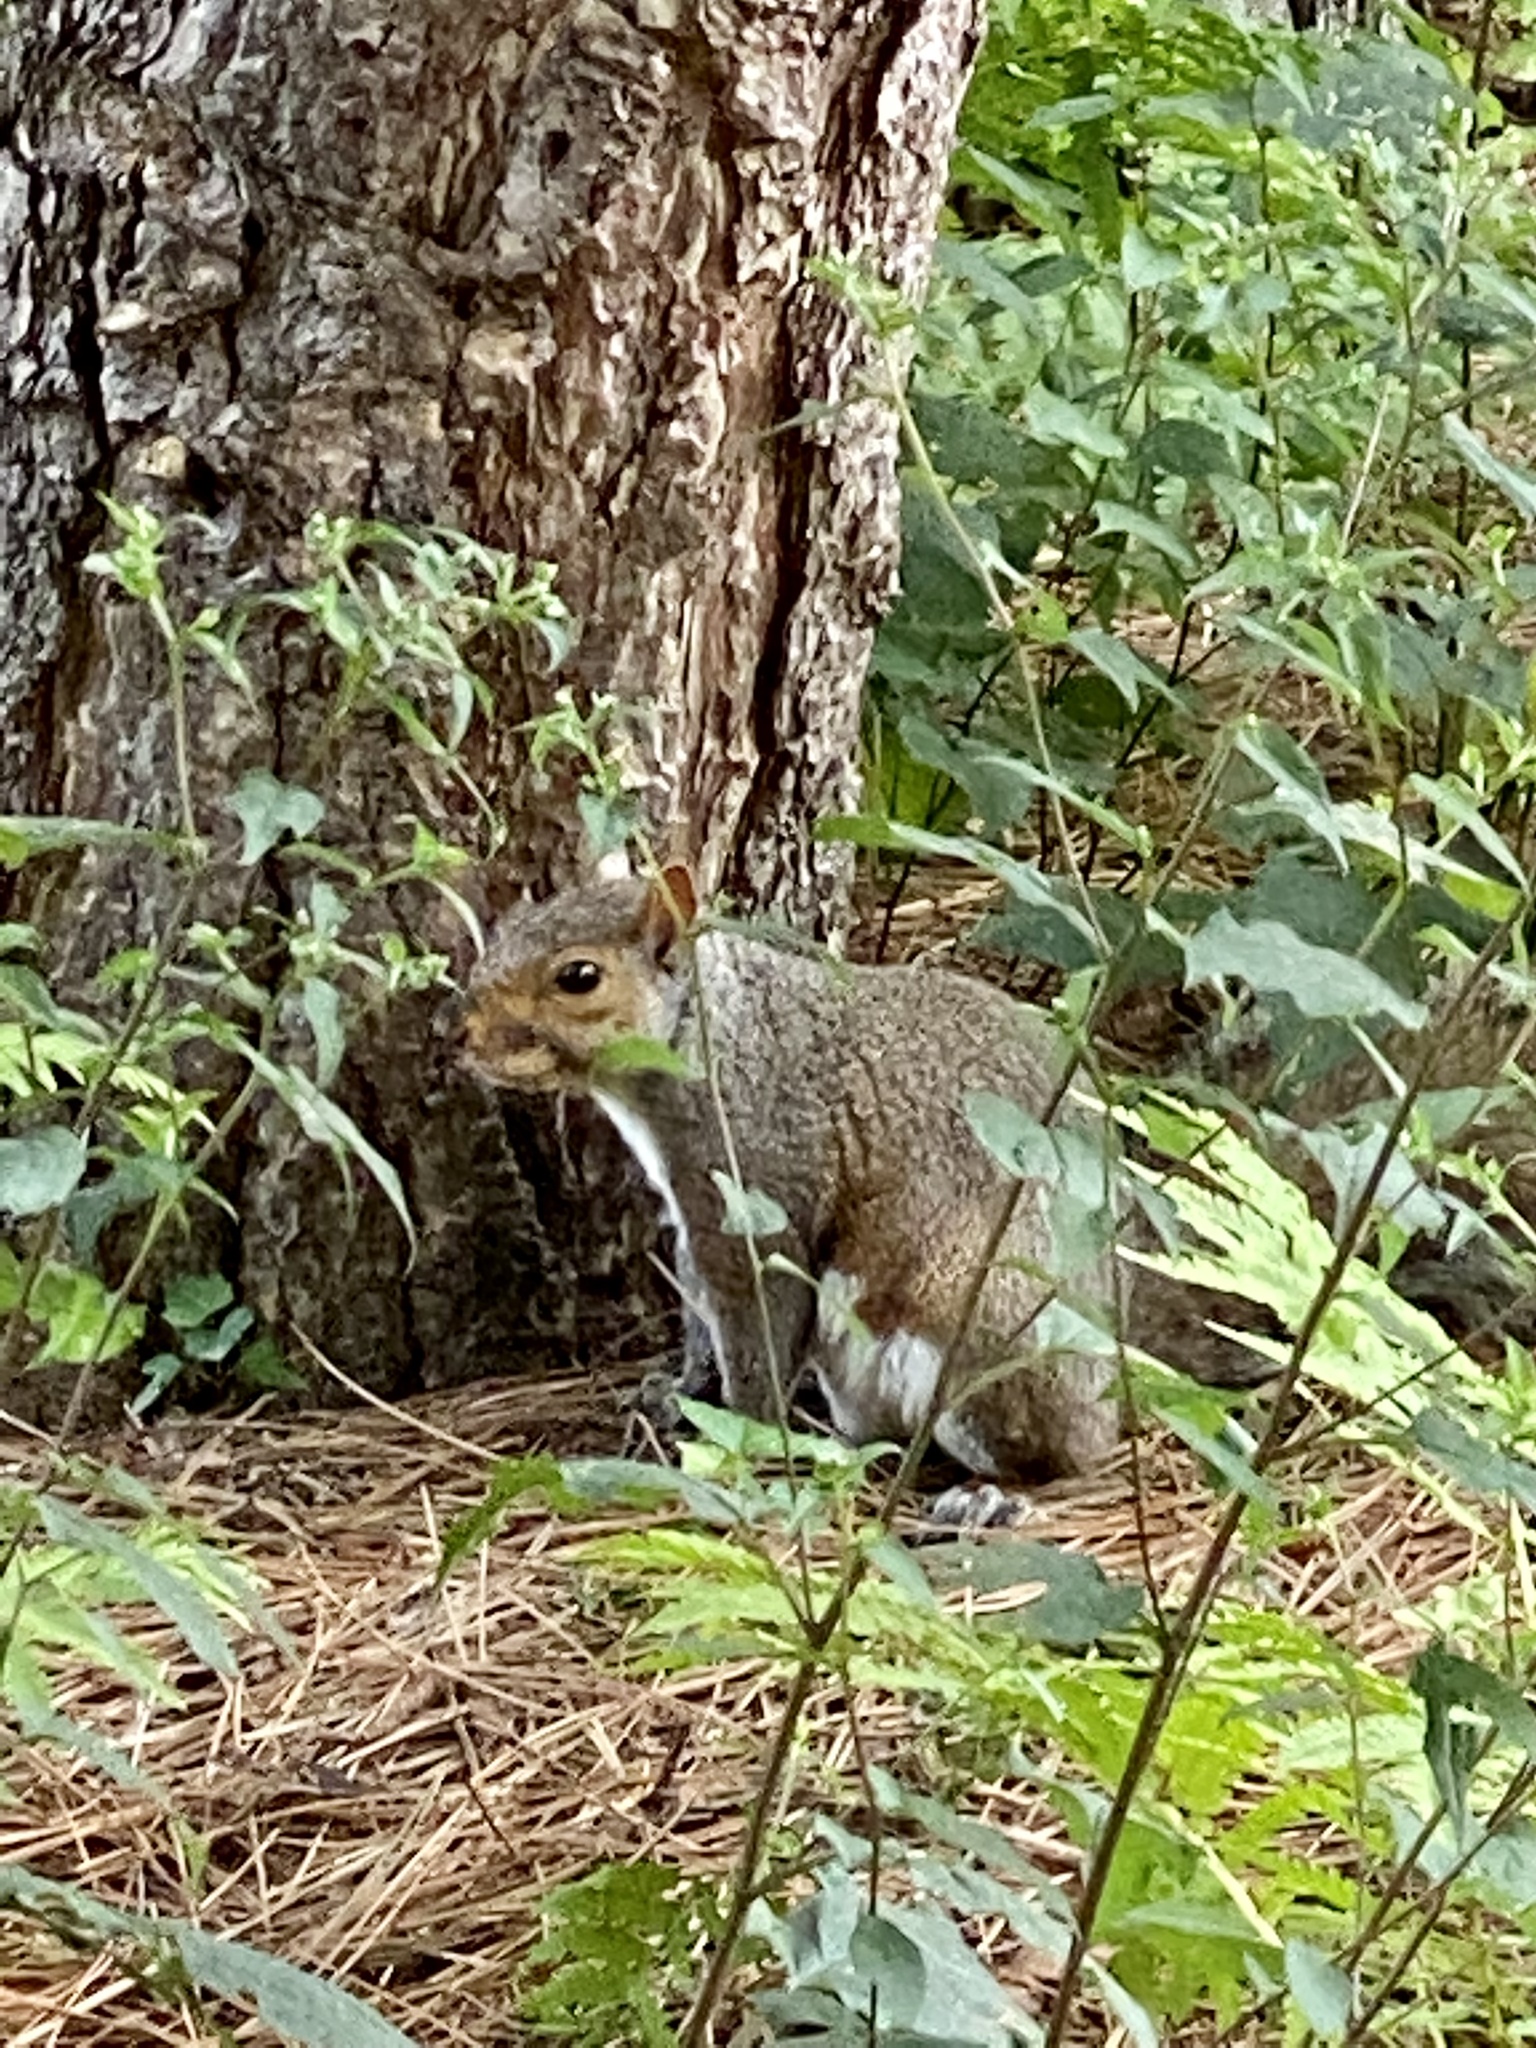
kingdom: Animalia
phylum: Chordata
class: Mammalia
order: Rodentia
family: Sciuridae
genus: Sciurus
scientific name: Sciurus carolinensis
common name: Eastern gray squirrel
